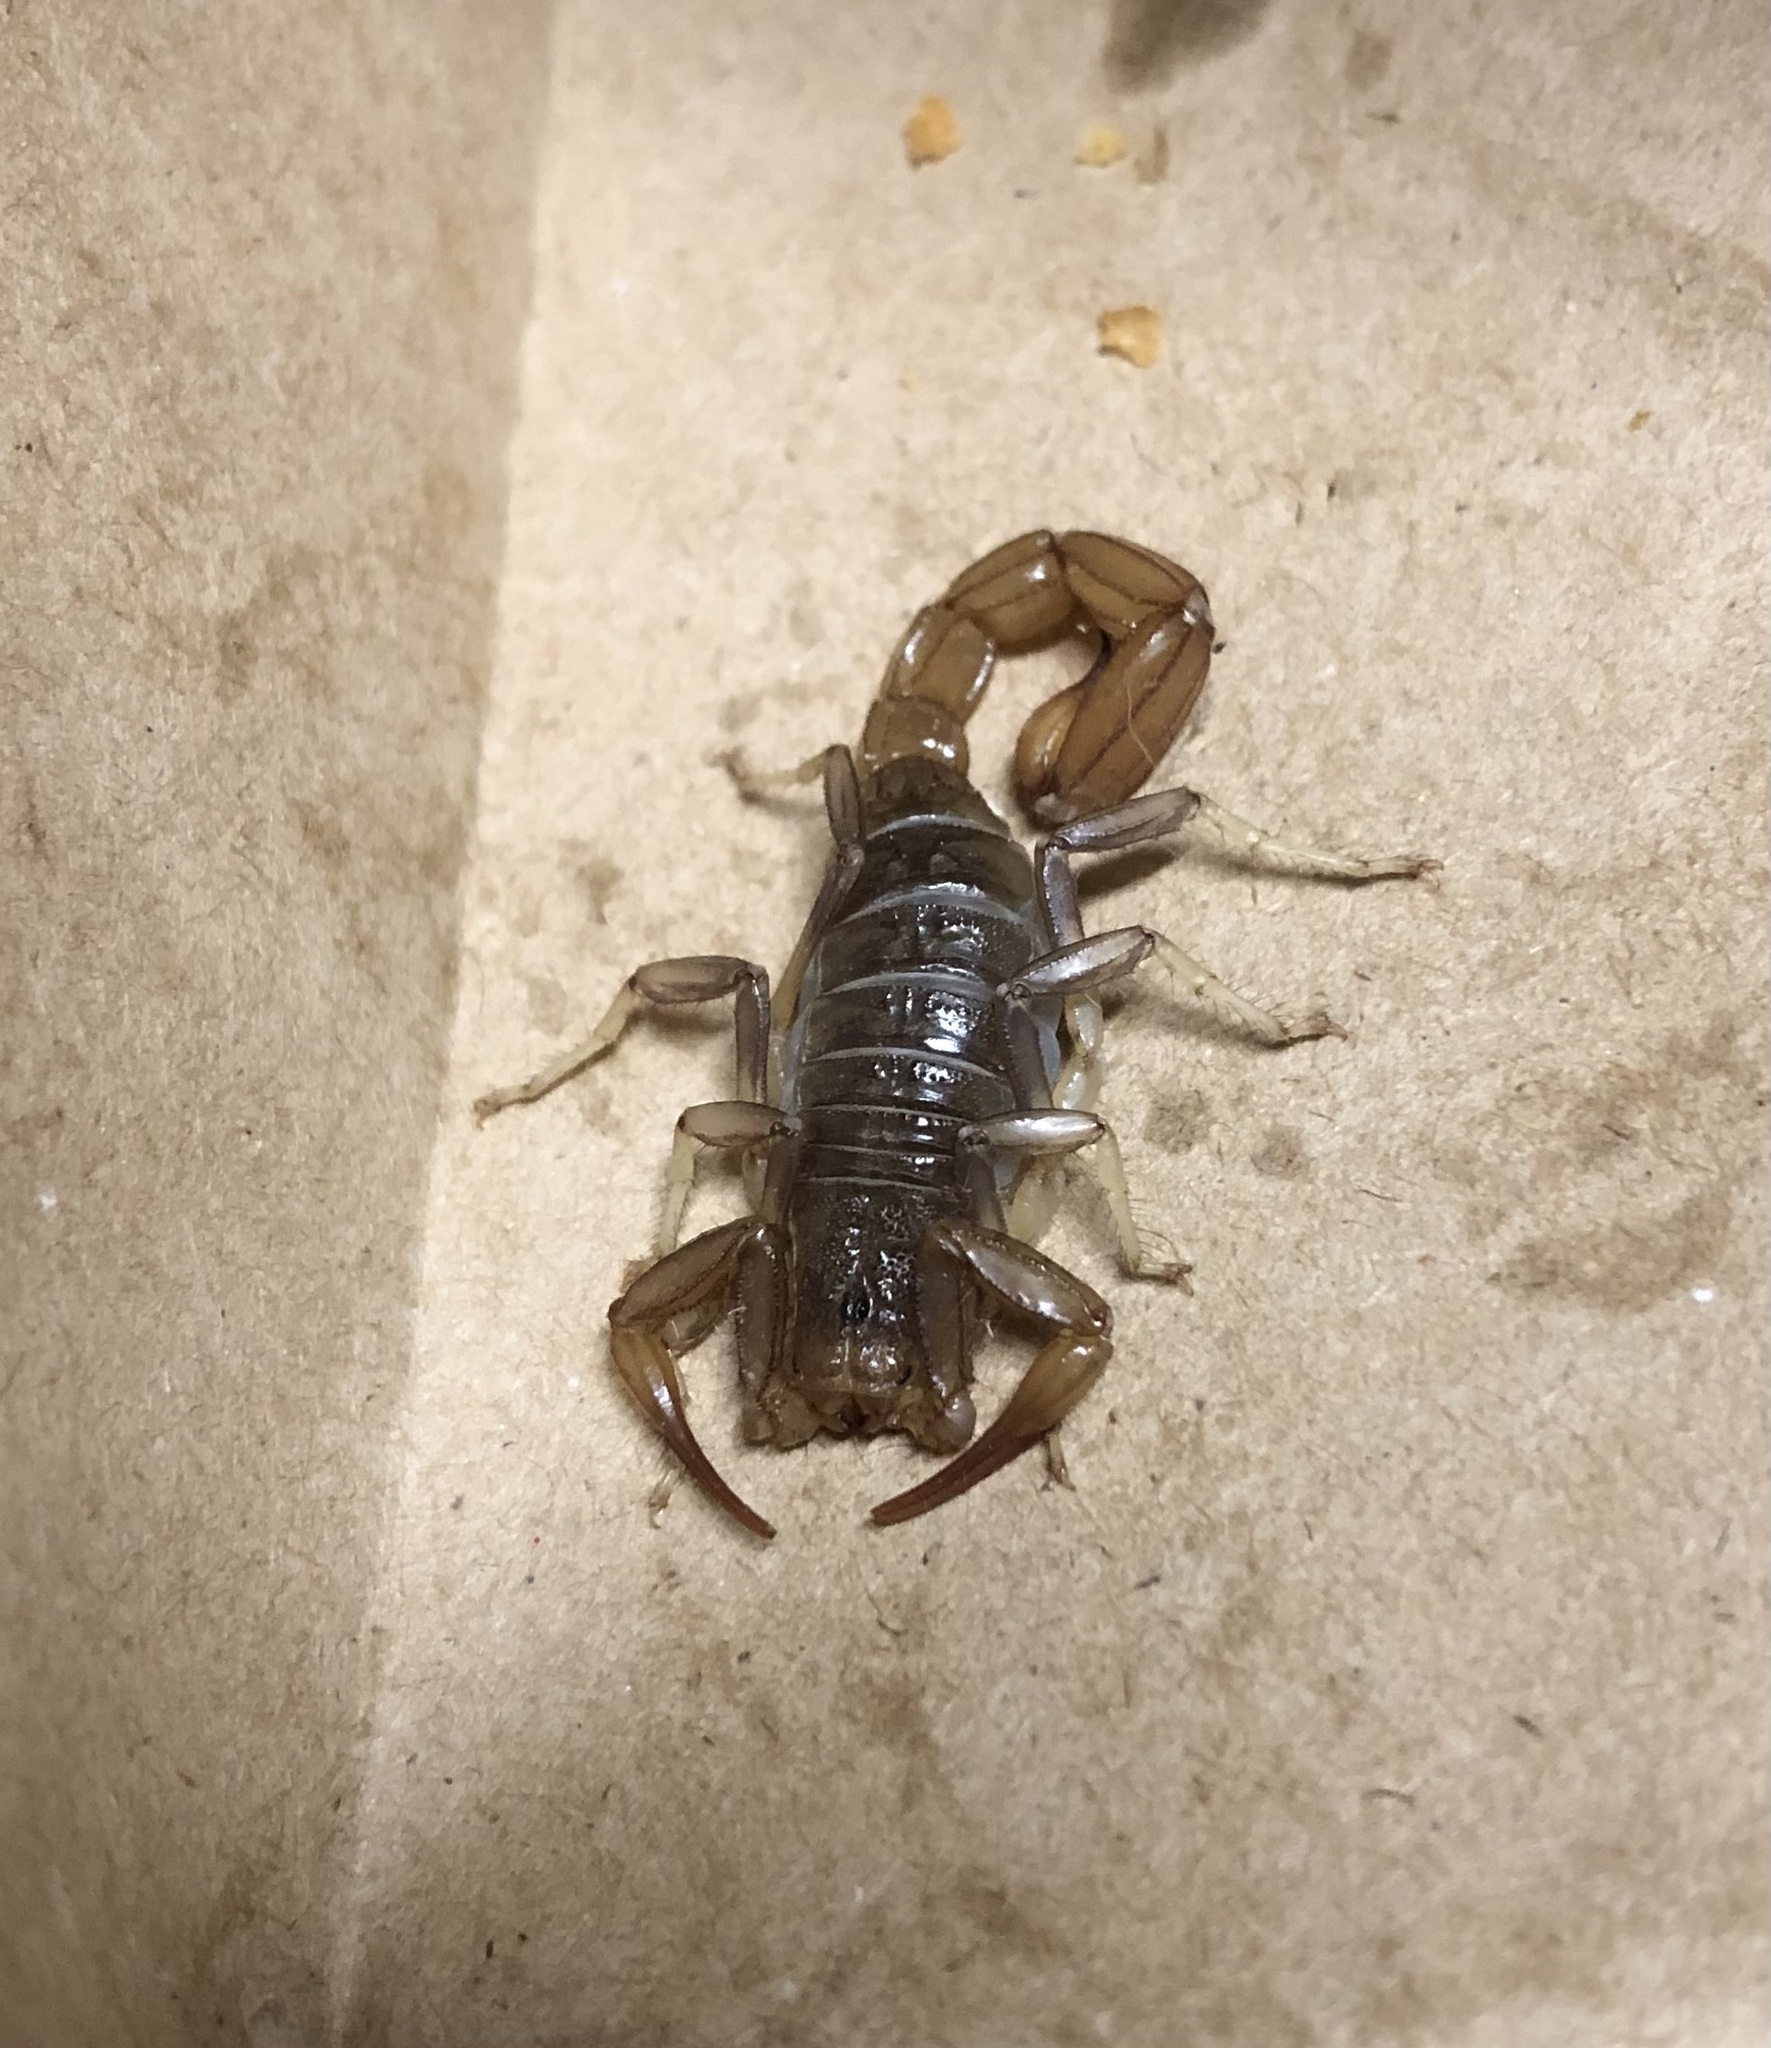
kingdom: Animalia
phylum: Arthropoda
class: Arachnida
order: Scorpiones
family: Vaejovidae
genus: Paravaejovis
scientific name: Paravaejovis puritanus
